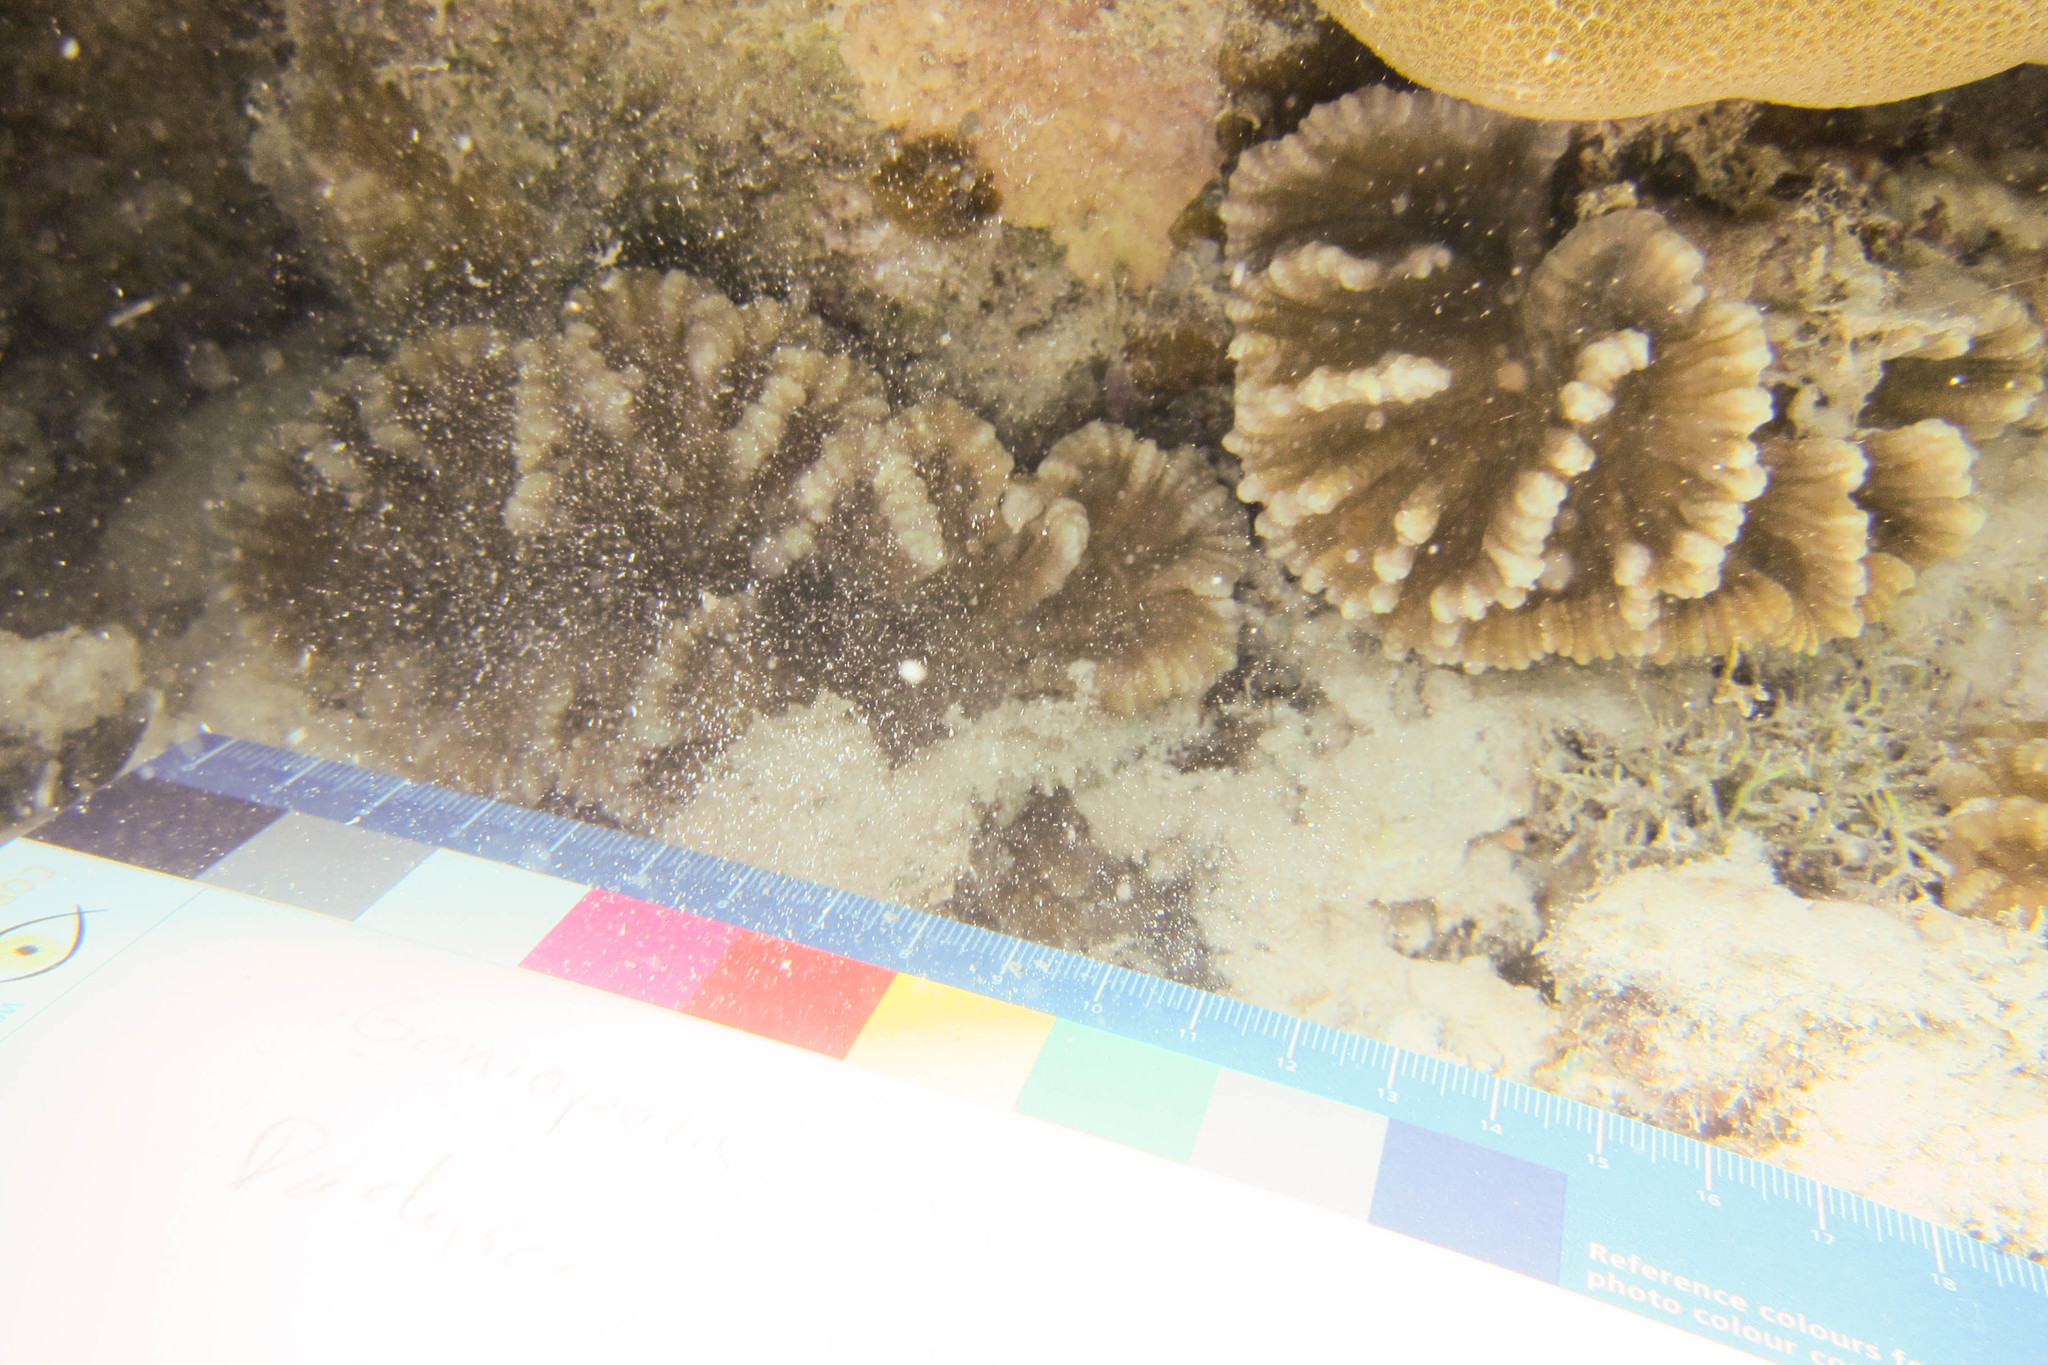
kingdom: Animalia
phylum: Cnidaria
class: Anthozoa
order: Scleractinia
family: Merulinidae
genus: Pectinia
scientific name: Pectinia paeonia
